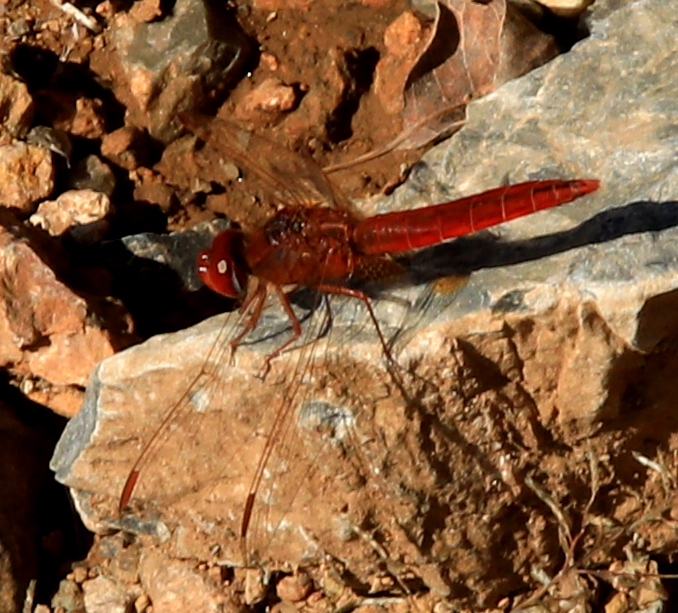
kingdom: Animalia
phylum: Arthropoda
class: Insecta
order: Odonata
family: Libellulidae
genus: Crocothemis
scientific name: Crocothemis erythraea
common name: Scarlet dragonfly
